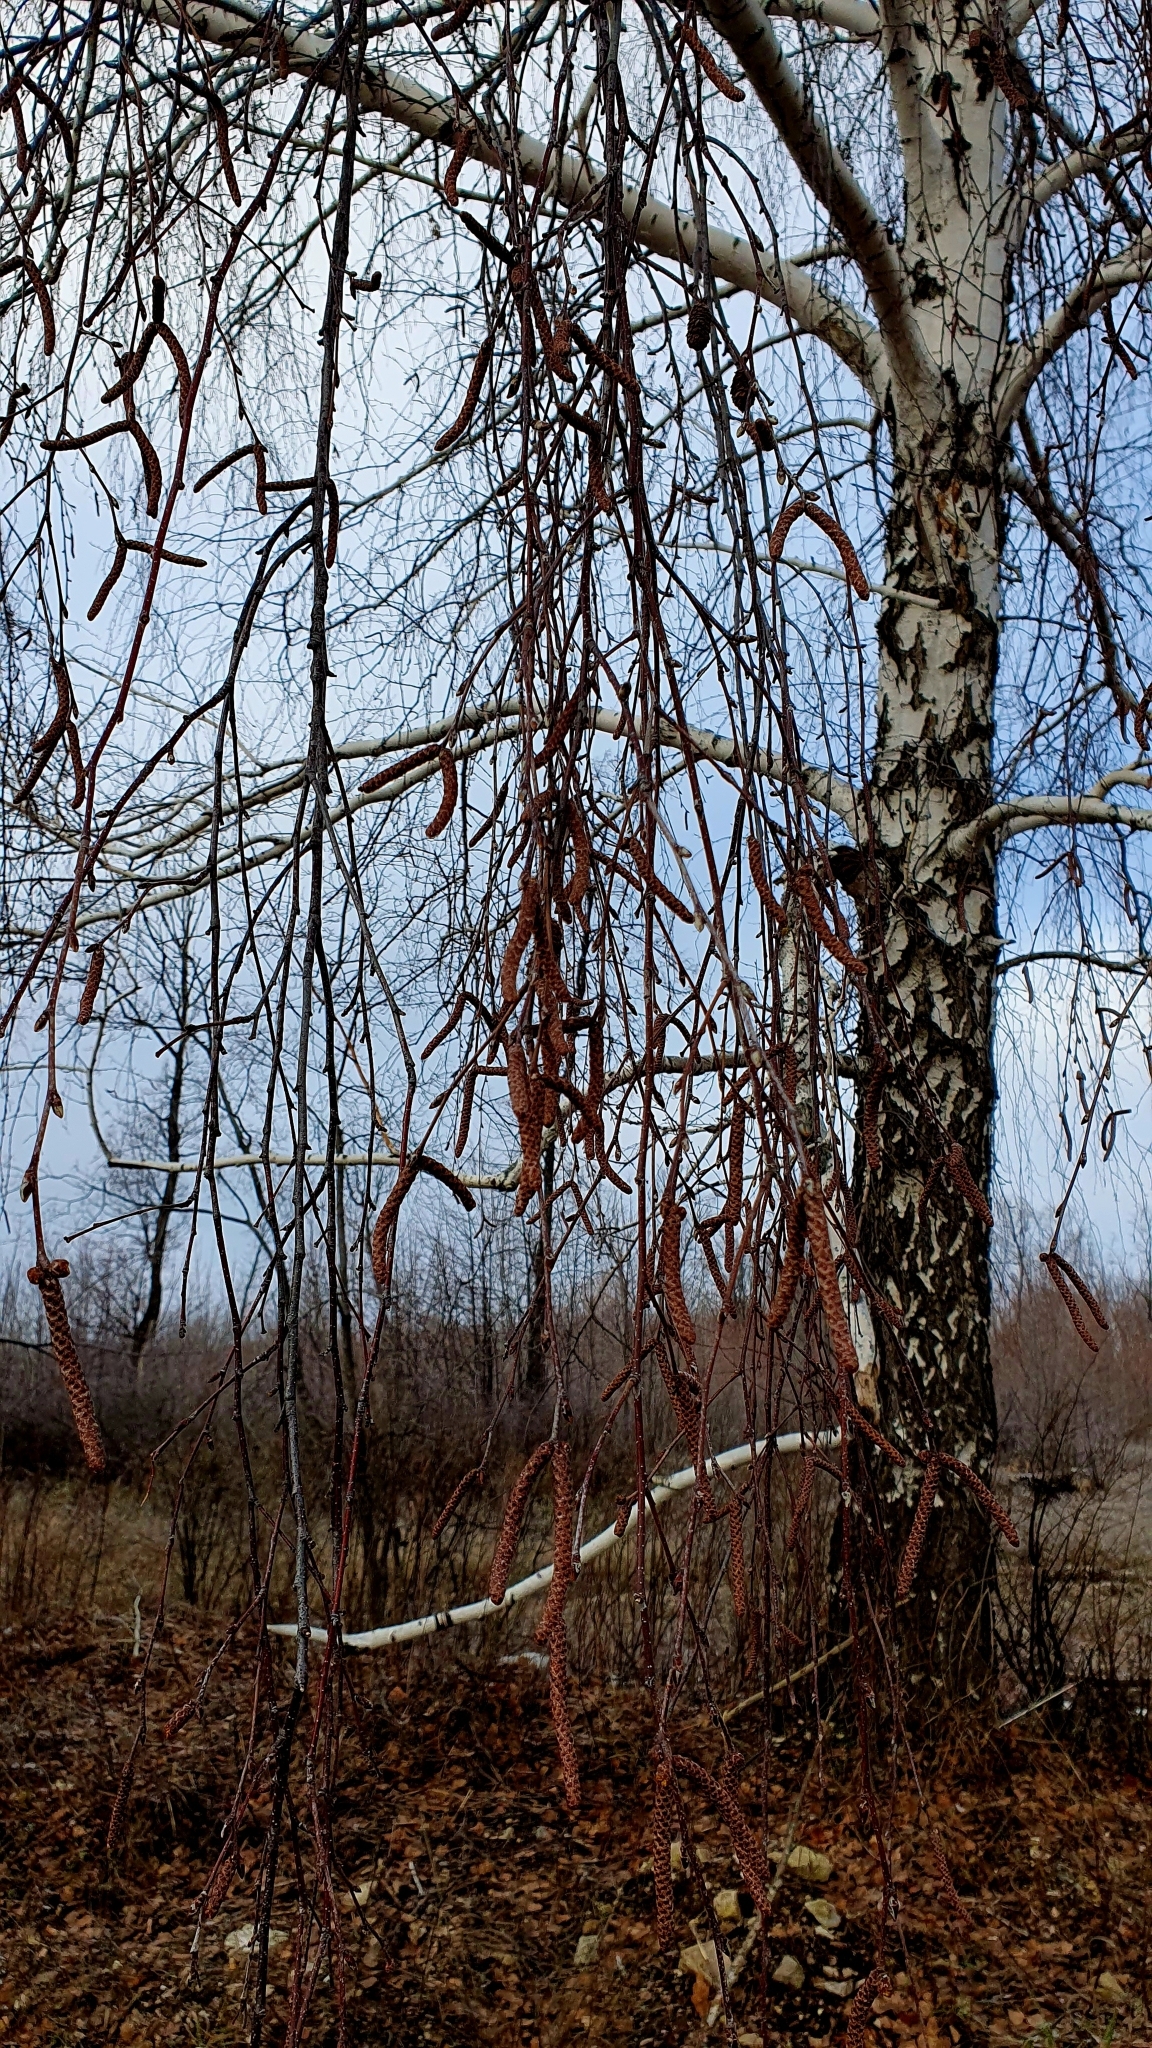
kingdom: Plantae
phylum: Tracheophyta
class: Magnoliopsida
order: Fagales
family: Betulaceae
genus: Betula
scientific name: Betula pendula
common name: Silver birch
